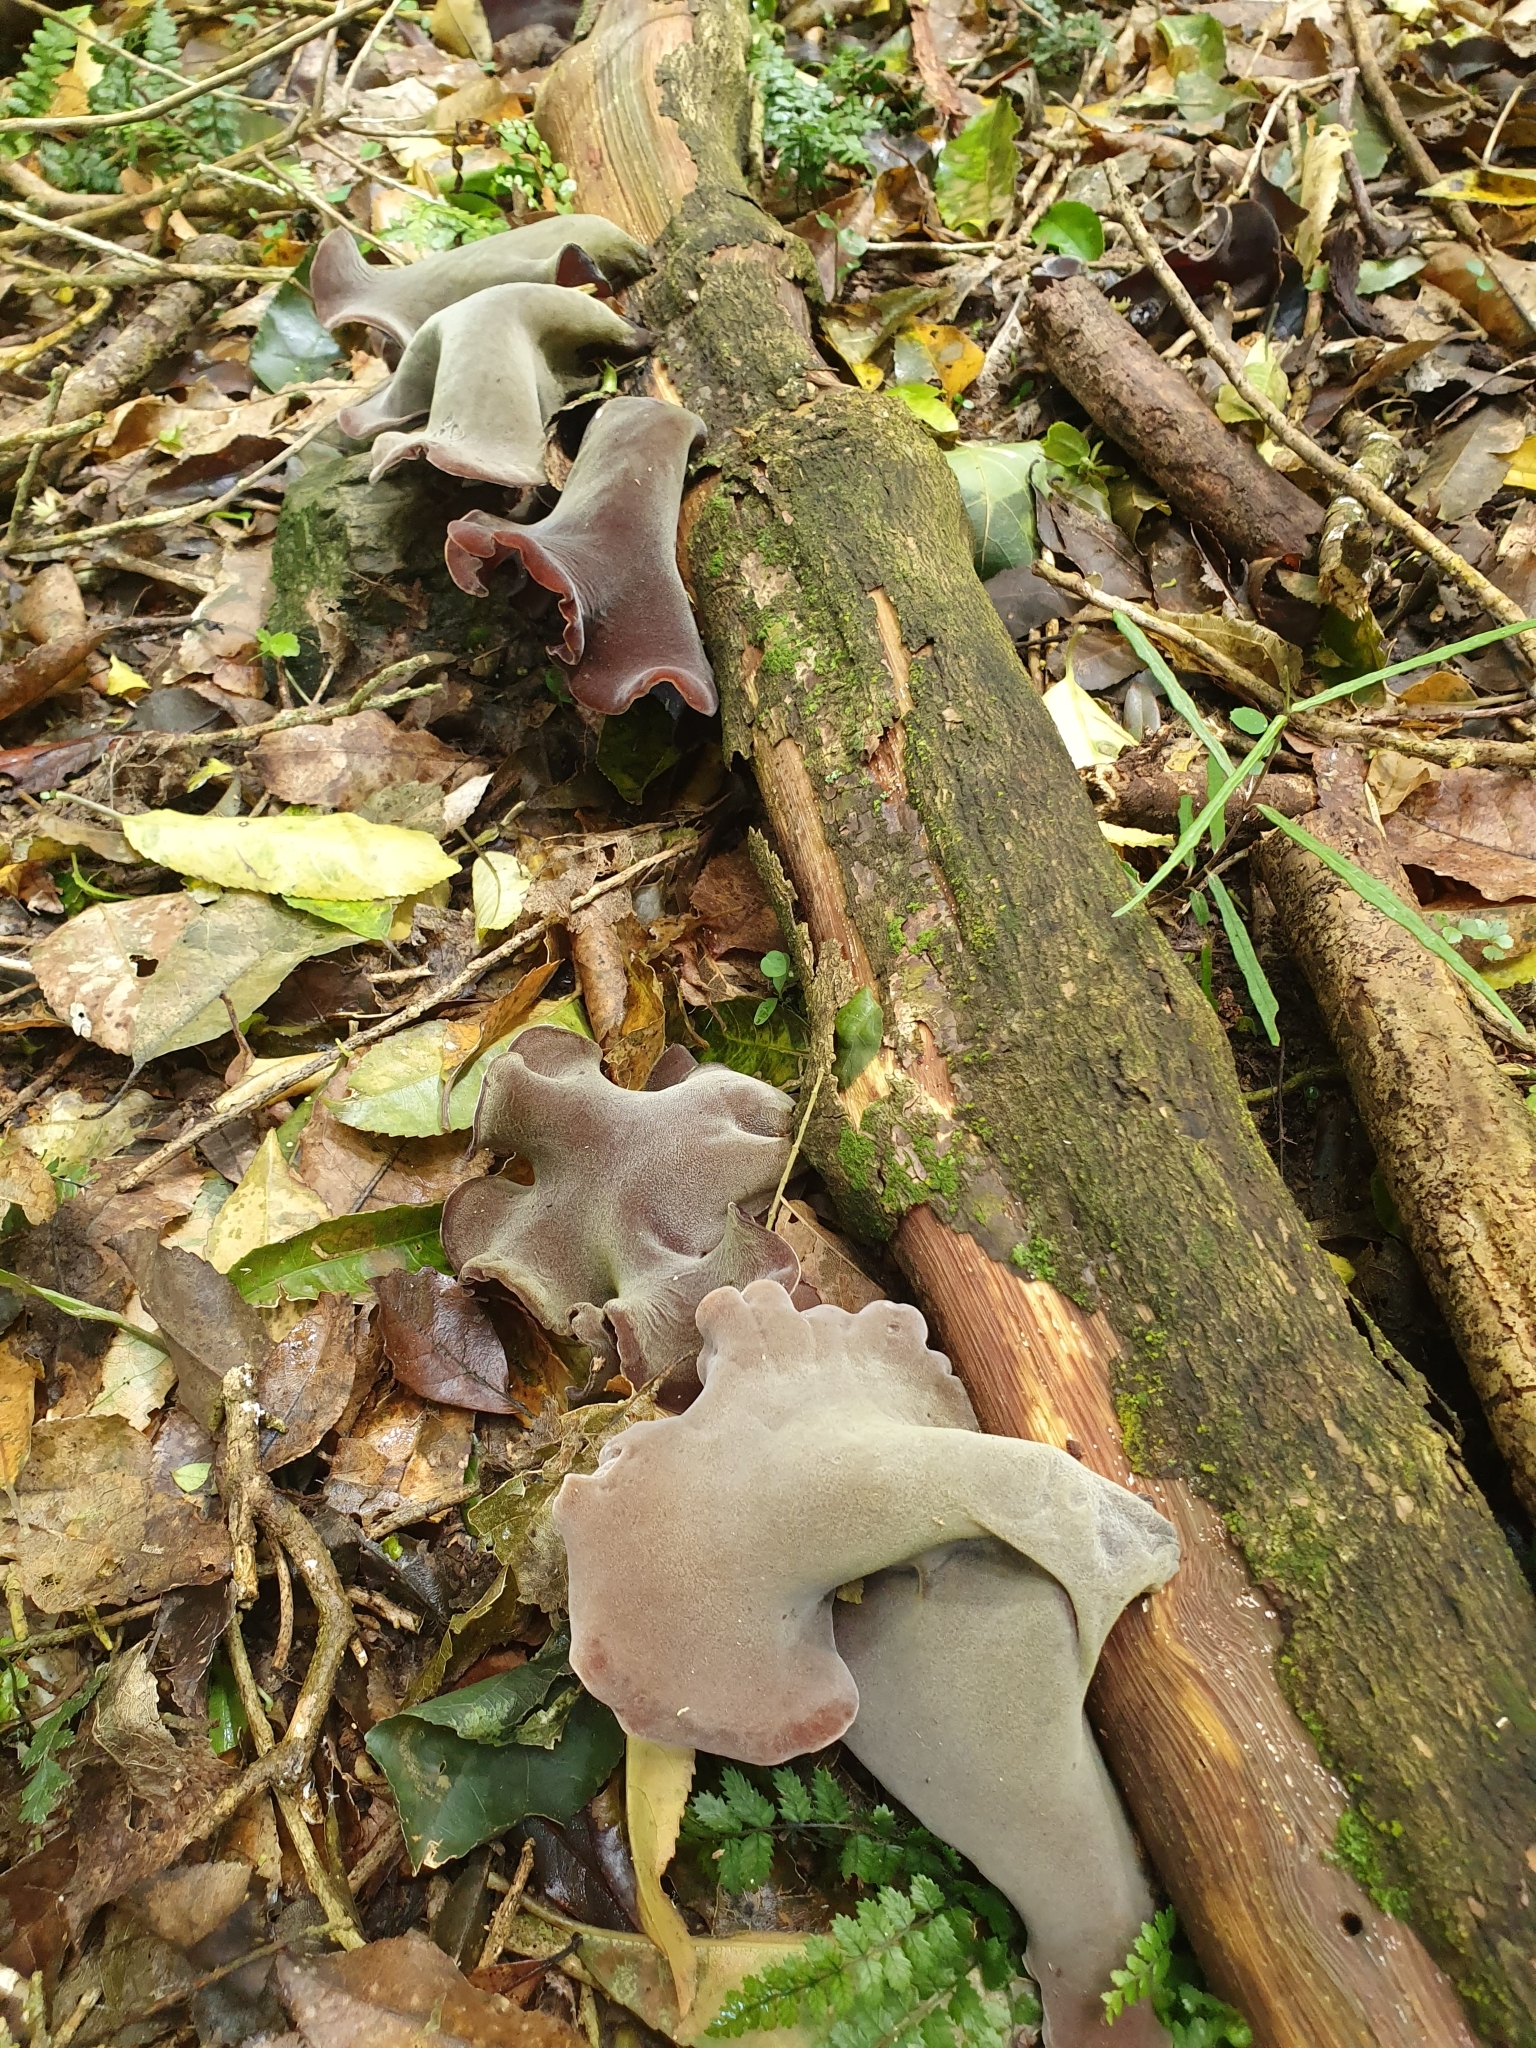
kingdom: Fungi
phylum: Basidiomycota
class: Agaricomycetes
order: Auriculariales
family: Auriculariaceae
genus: Auricularia
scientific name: Auricularia cornea
